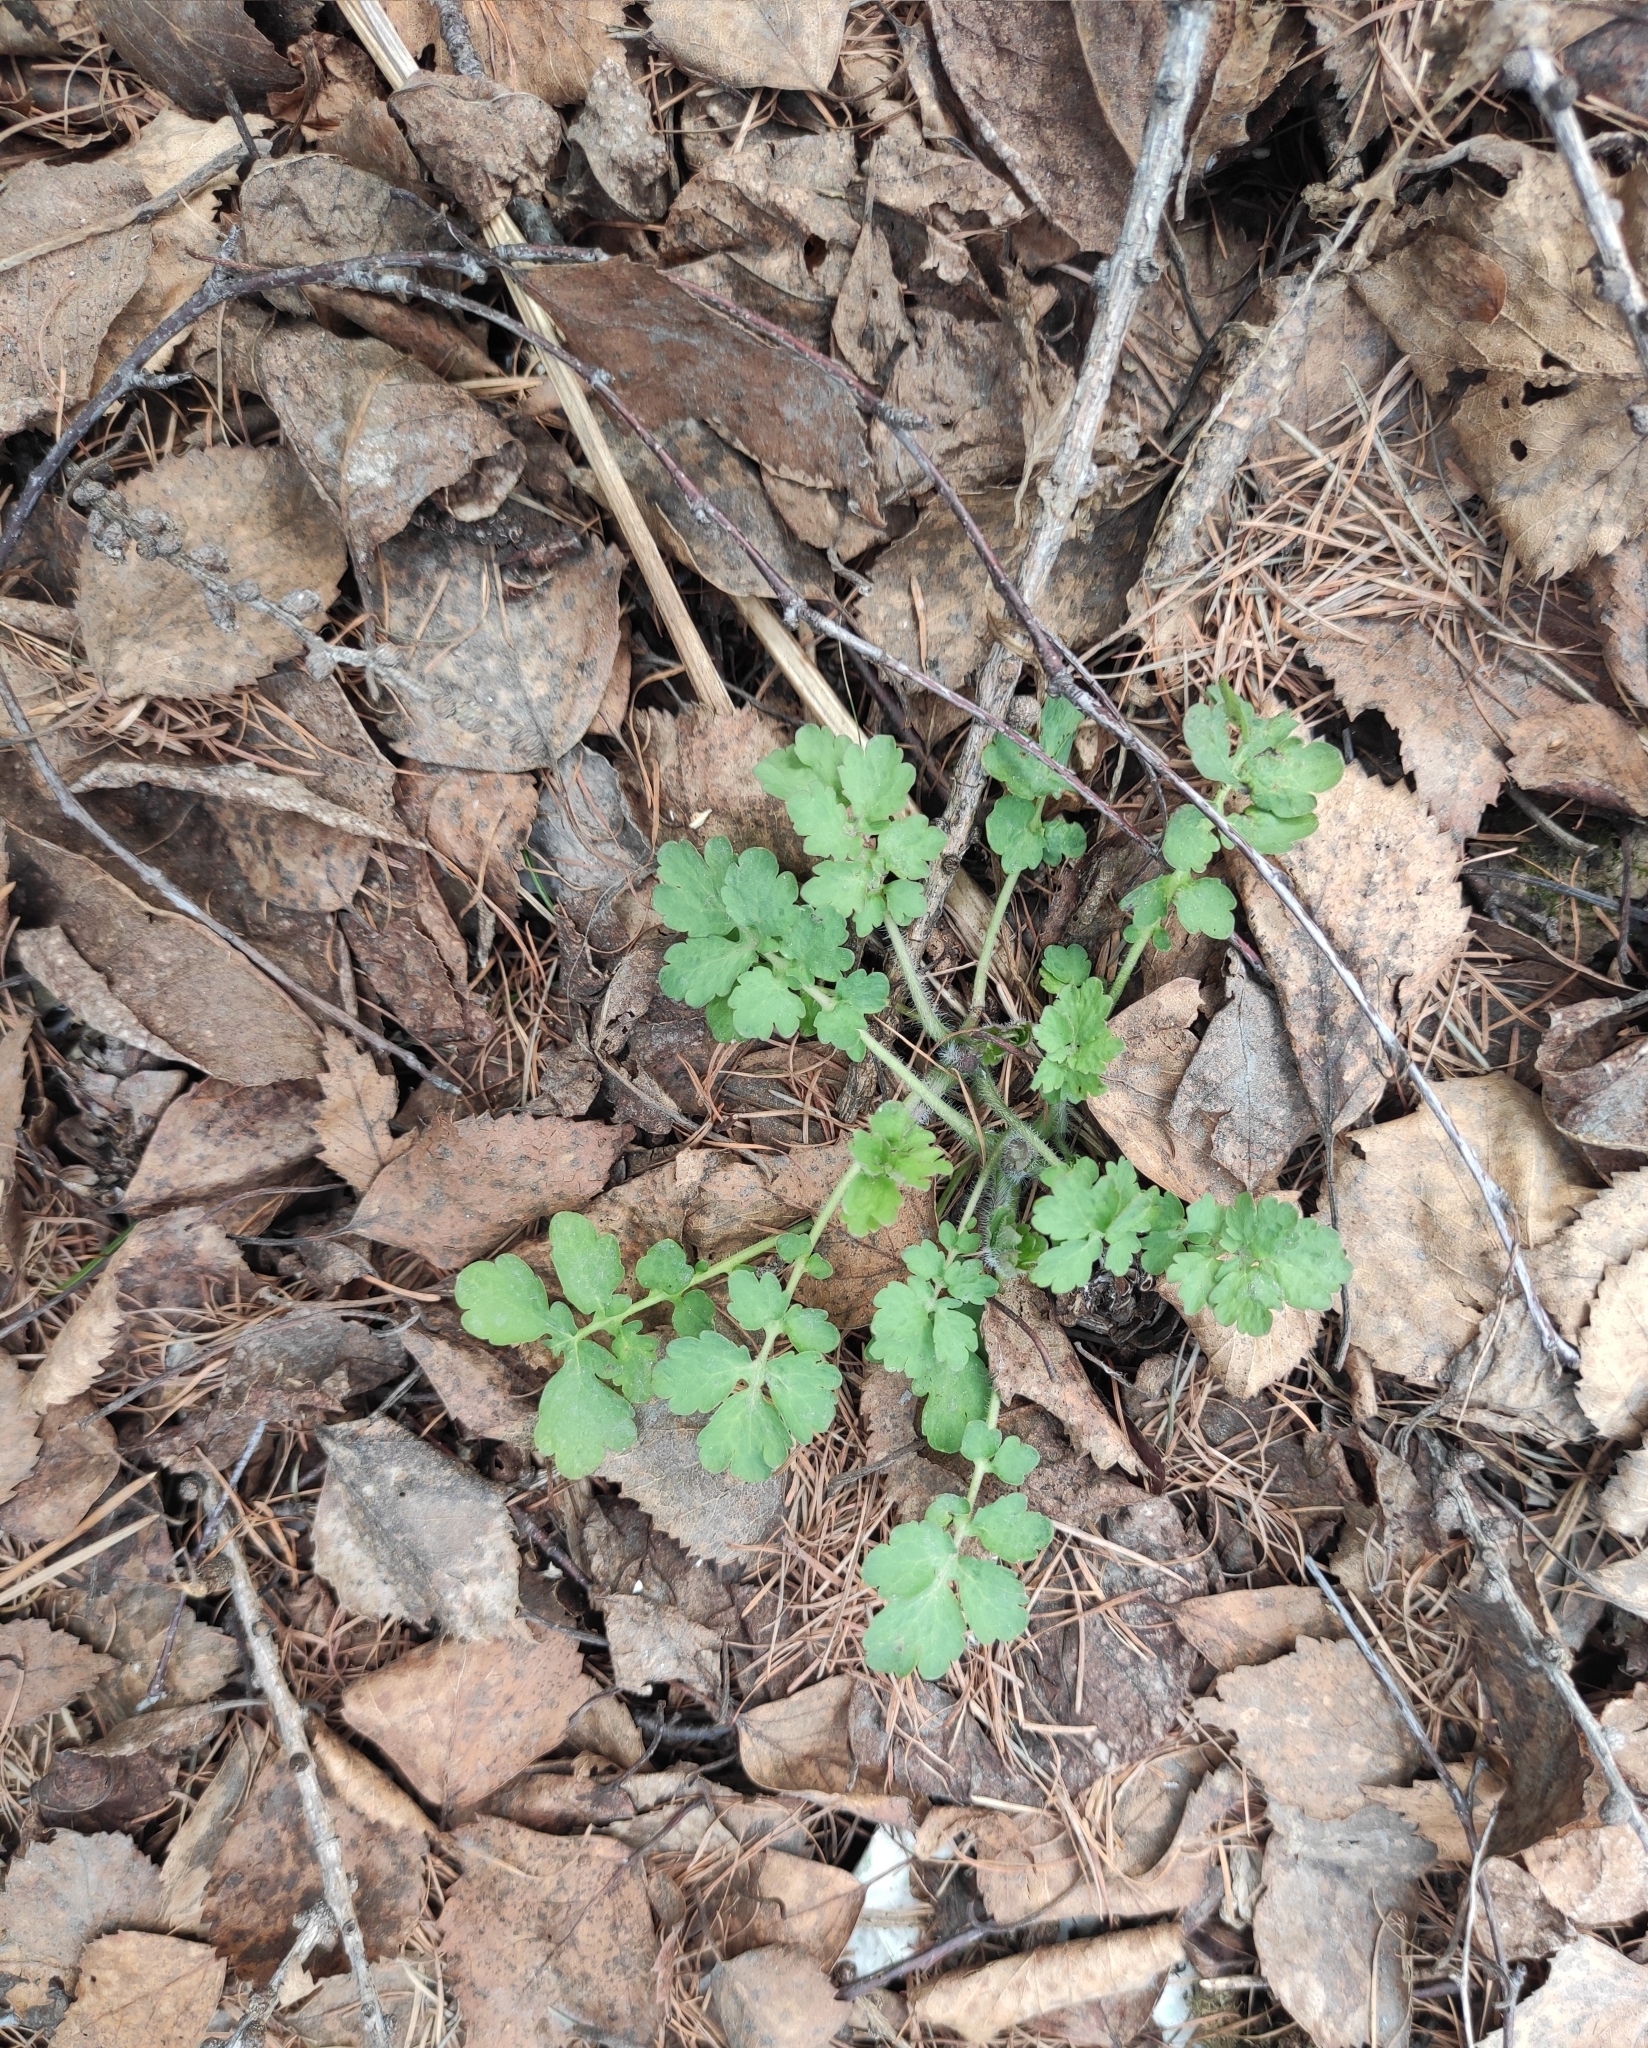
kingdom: Plantae
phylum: Tracheophyta
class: Magnoliopsida
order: Ranunculales
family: Papaveraceae
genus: Chelidonium
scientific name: Chelidonium majus
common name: Greater celandine
